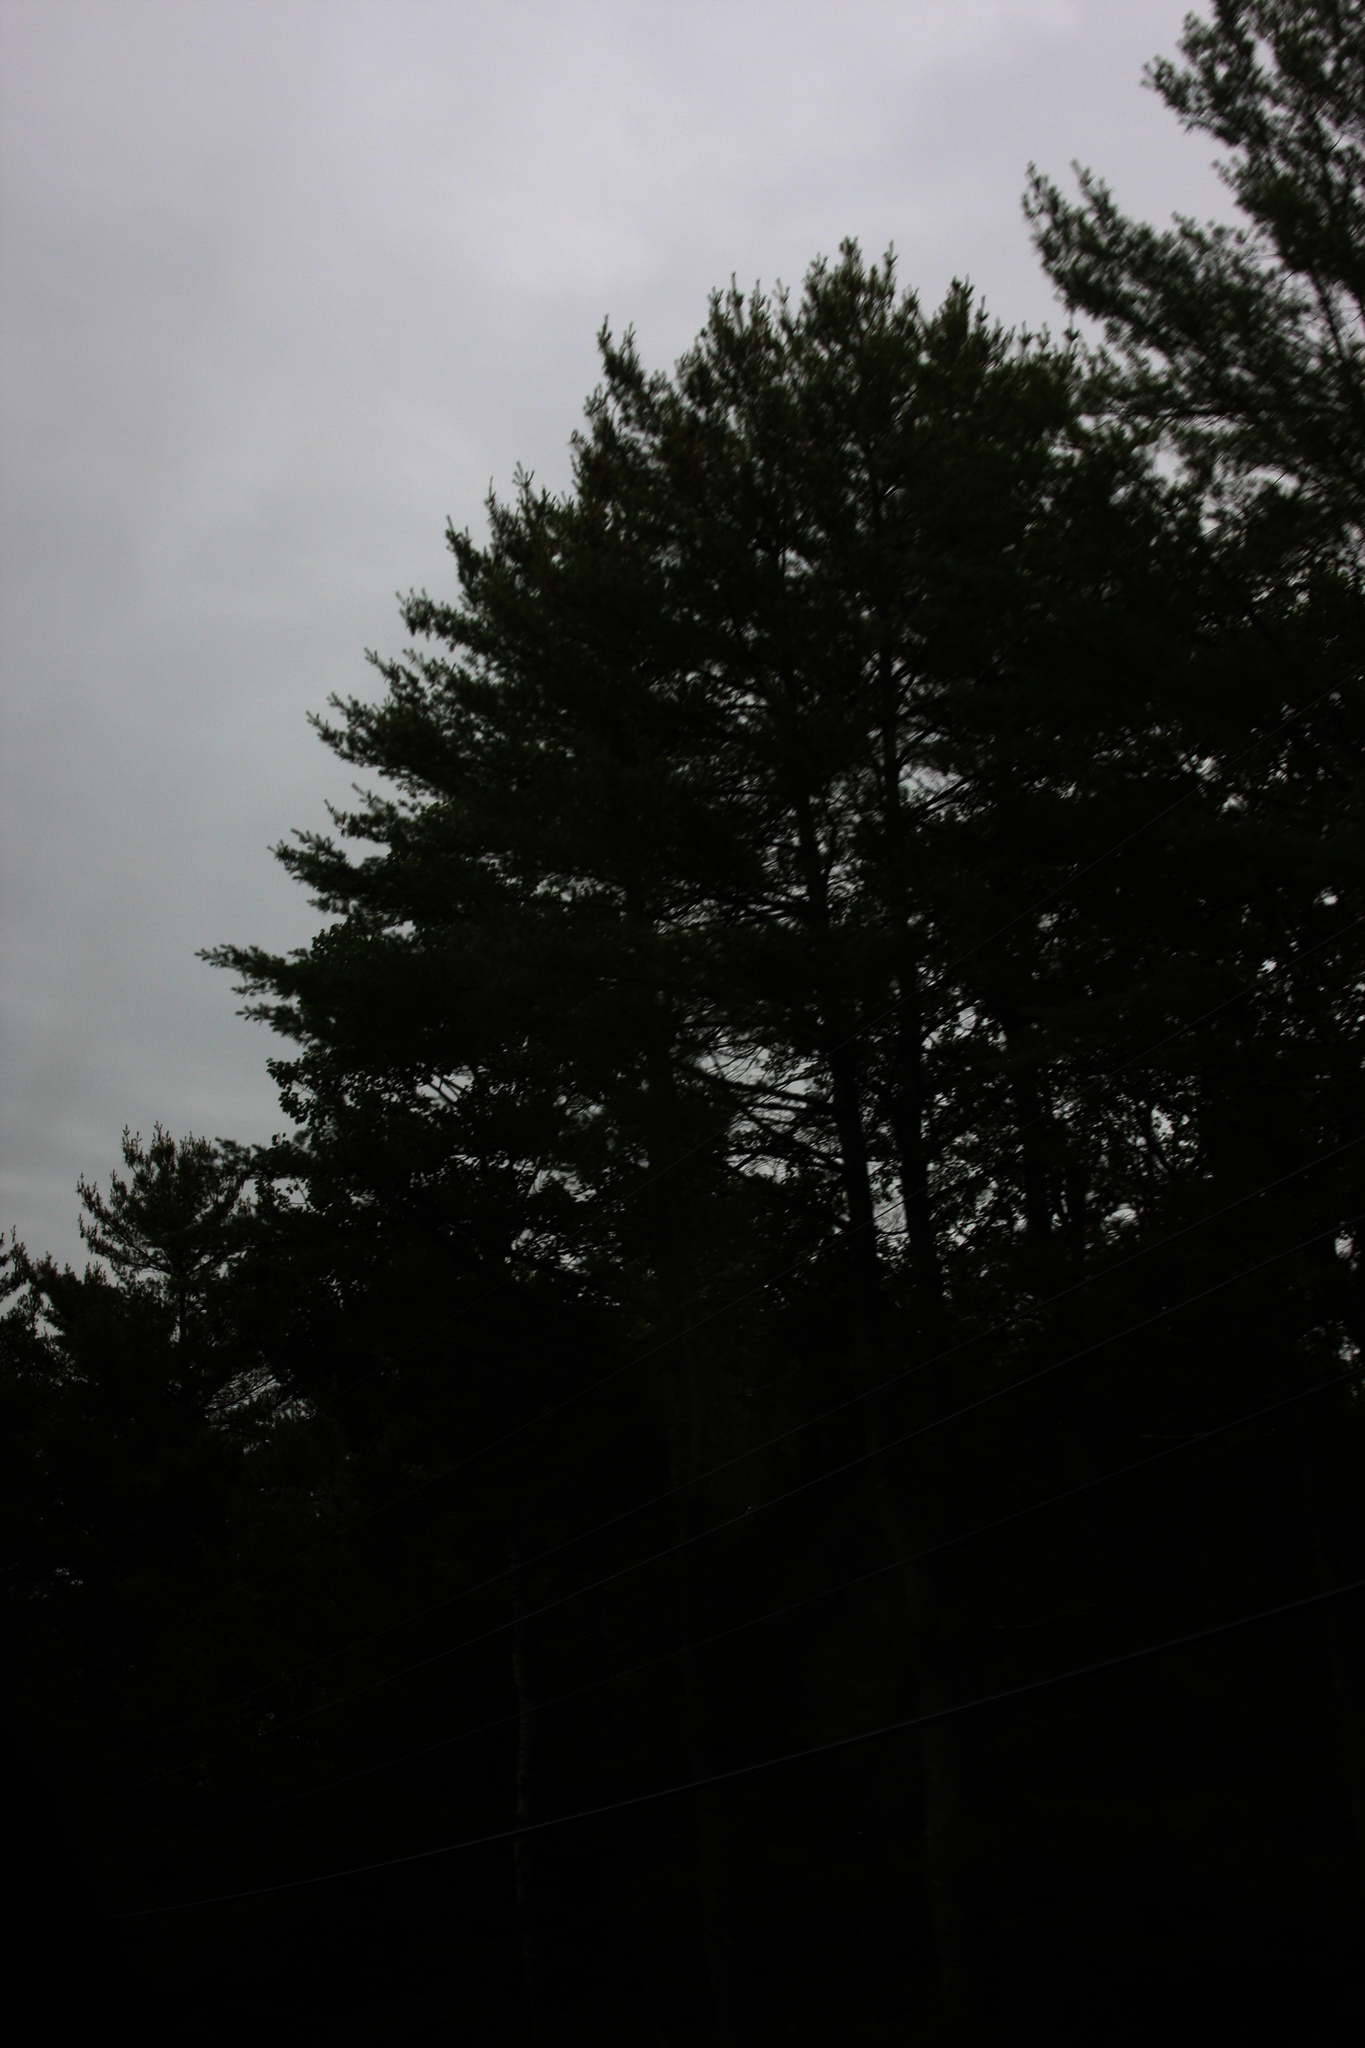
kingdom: Plantae
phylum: Tracheophyta
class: Pinopsida
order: Pinales
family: Pinaceae
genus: Pinus
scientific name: Pinus strobus
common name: Weymouth pine
